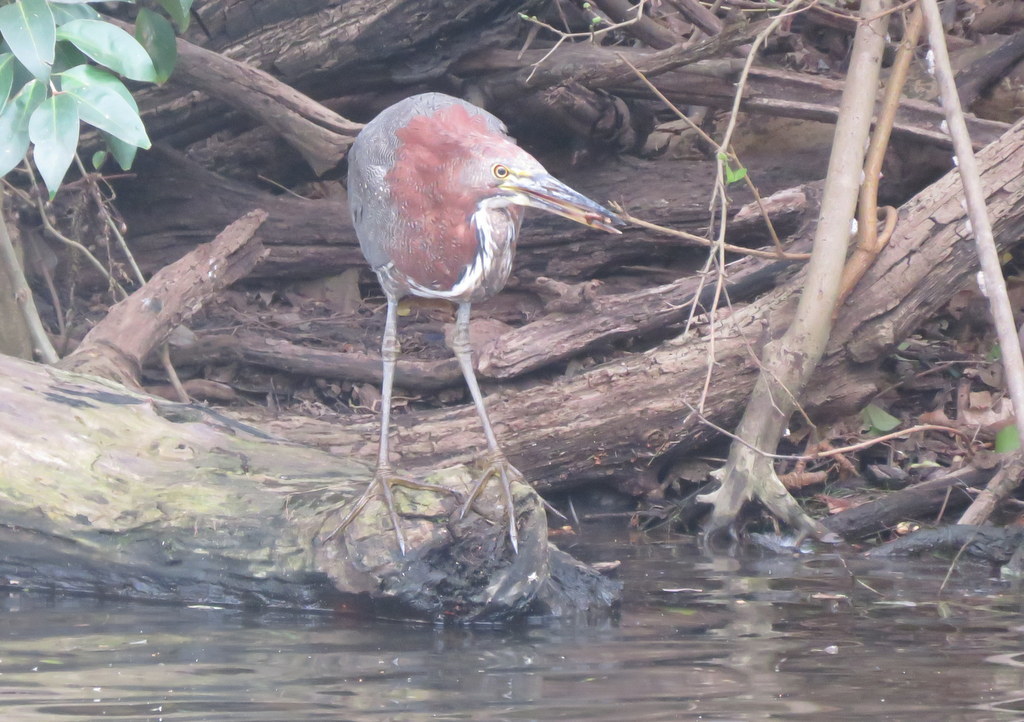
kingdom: Animalia
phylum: Chordata
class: Aves
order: Pelecaniformes
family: Ardeidae
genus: Tigrisoma
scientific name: Tigrisoma lineatum
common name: Rufescent tiger-heron
